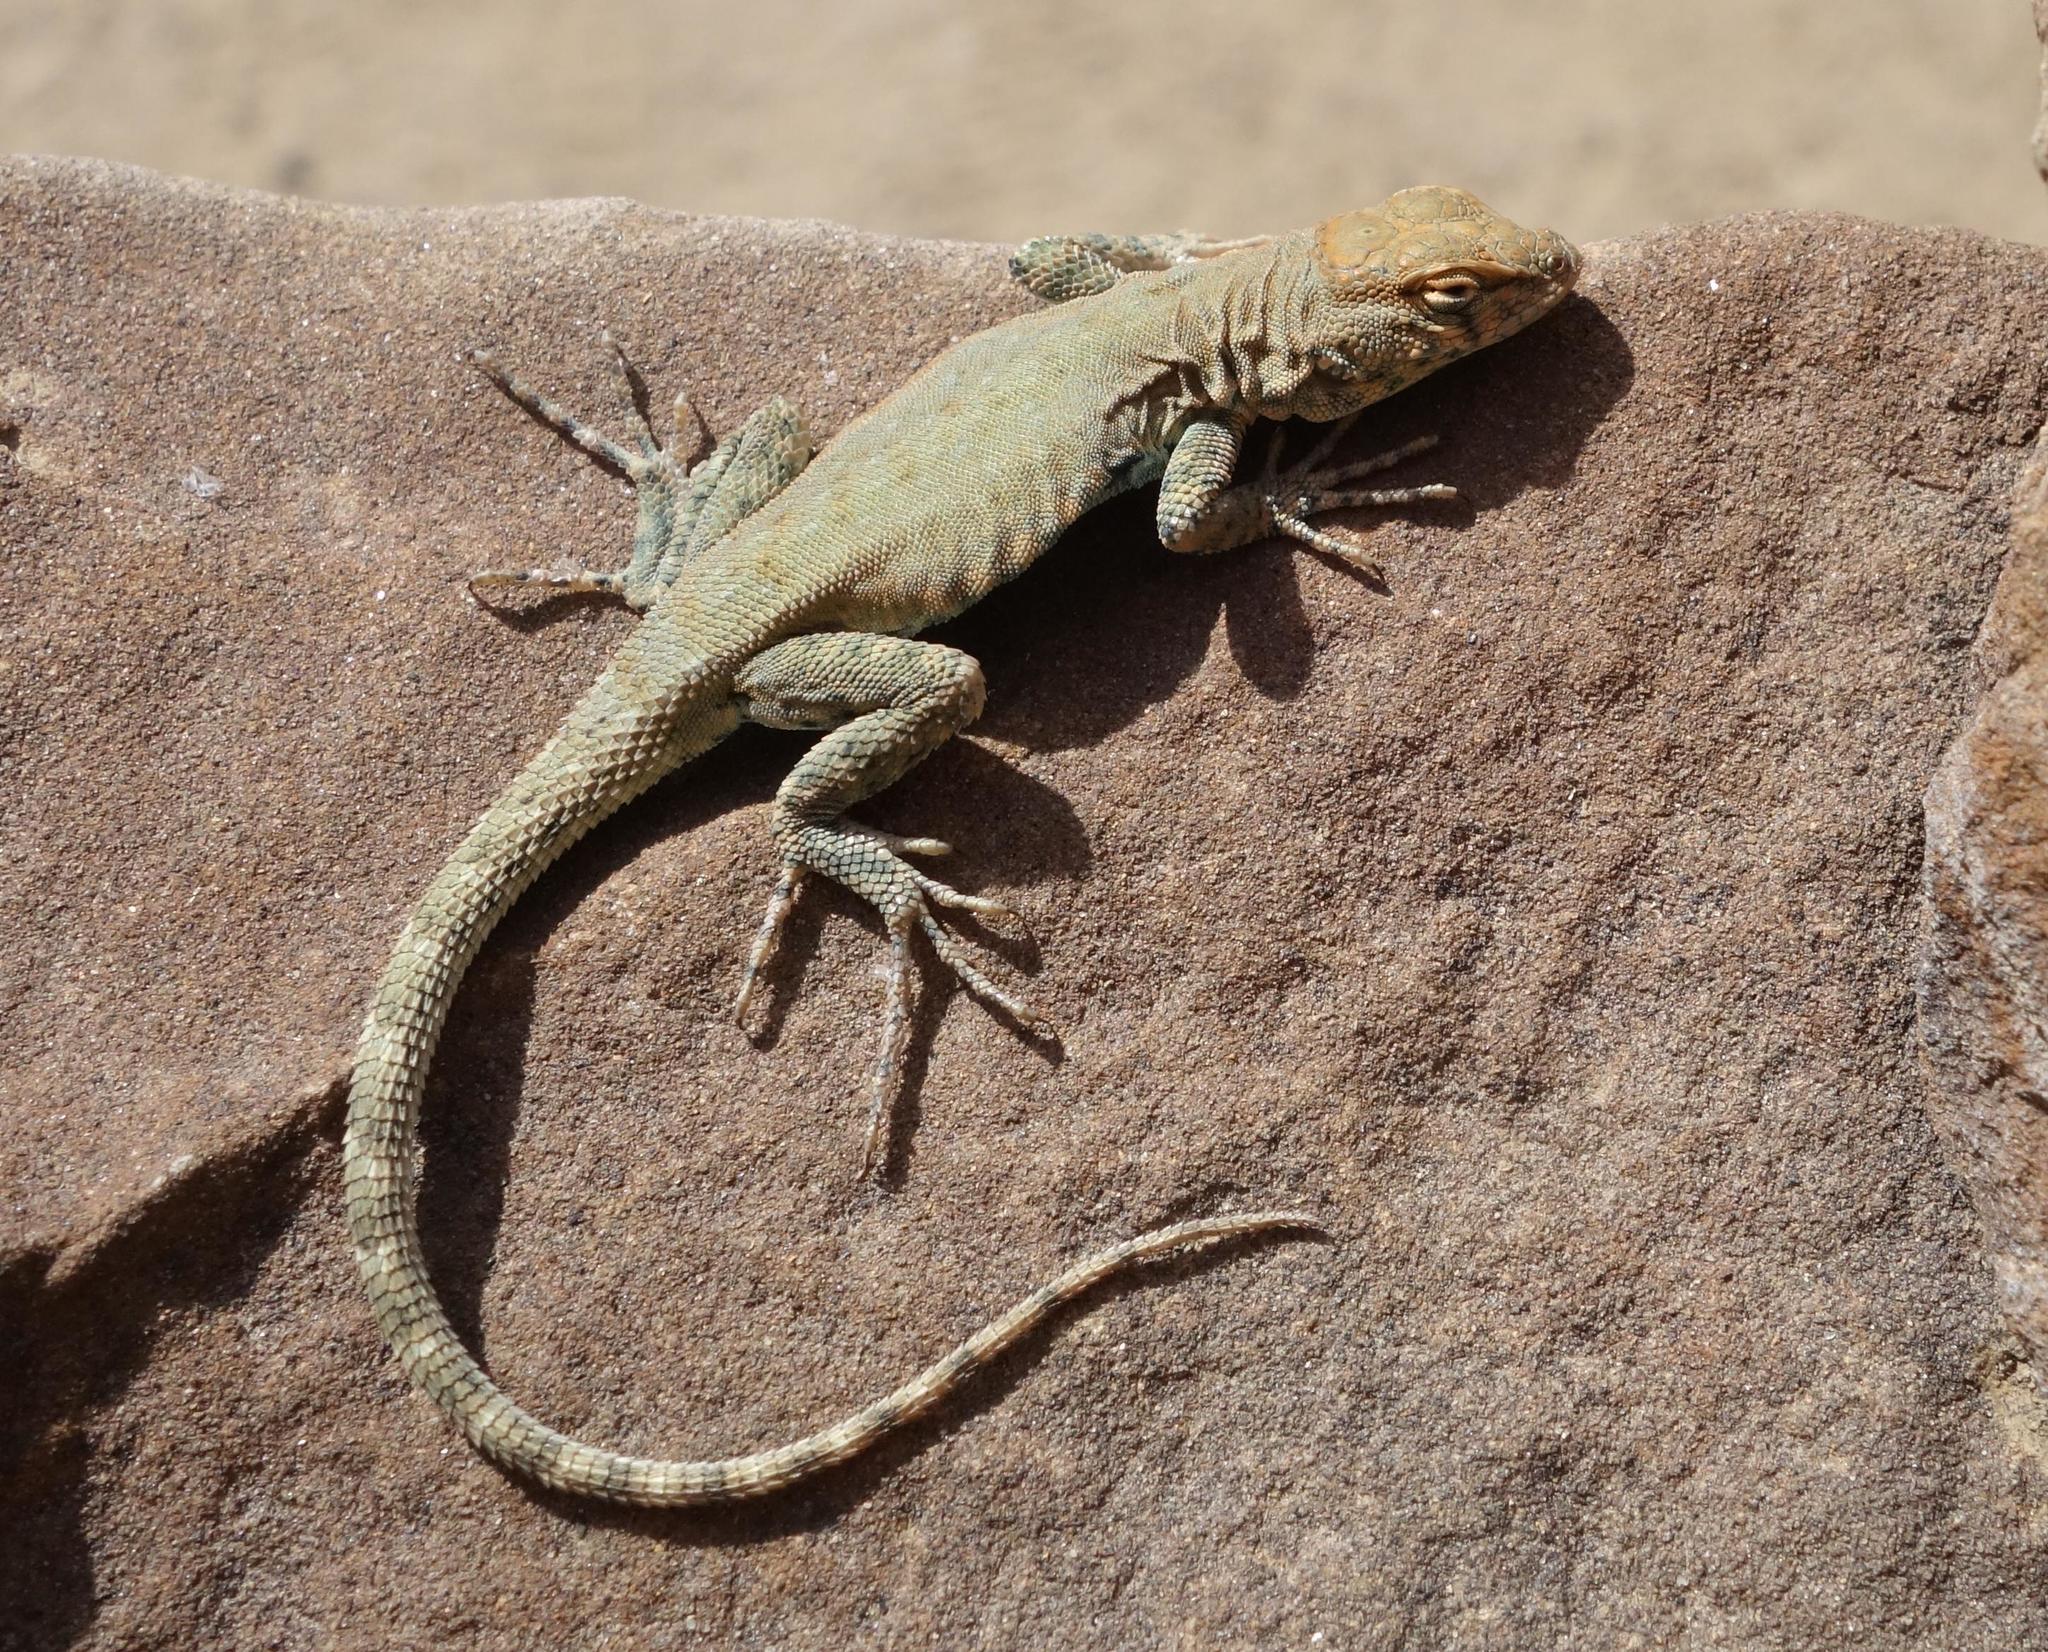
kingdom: Animalia
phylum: Chordata
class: Squamata
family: Phrynosomatidae
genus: Uta
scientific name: Uta stansburiana
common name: Side-blotched lizard
